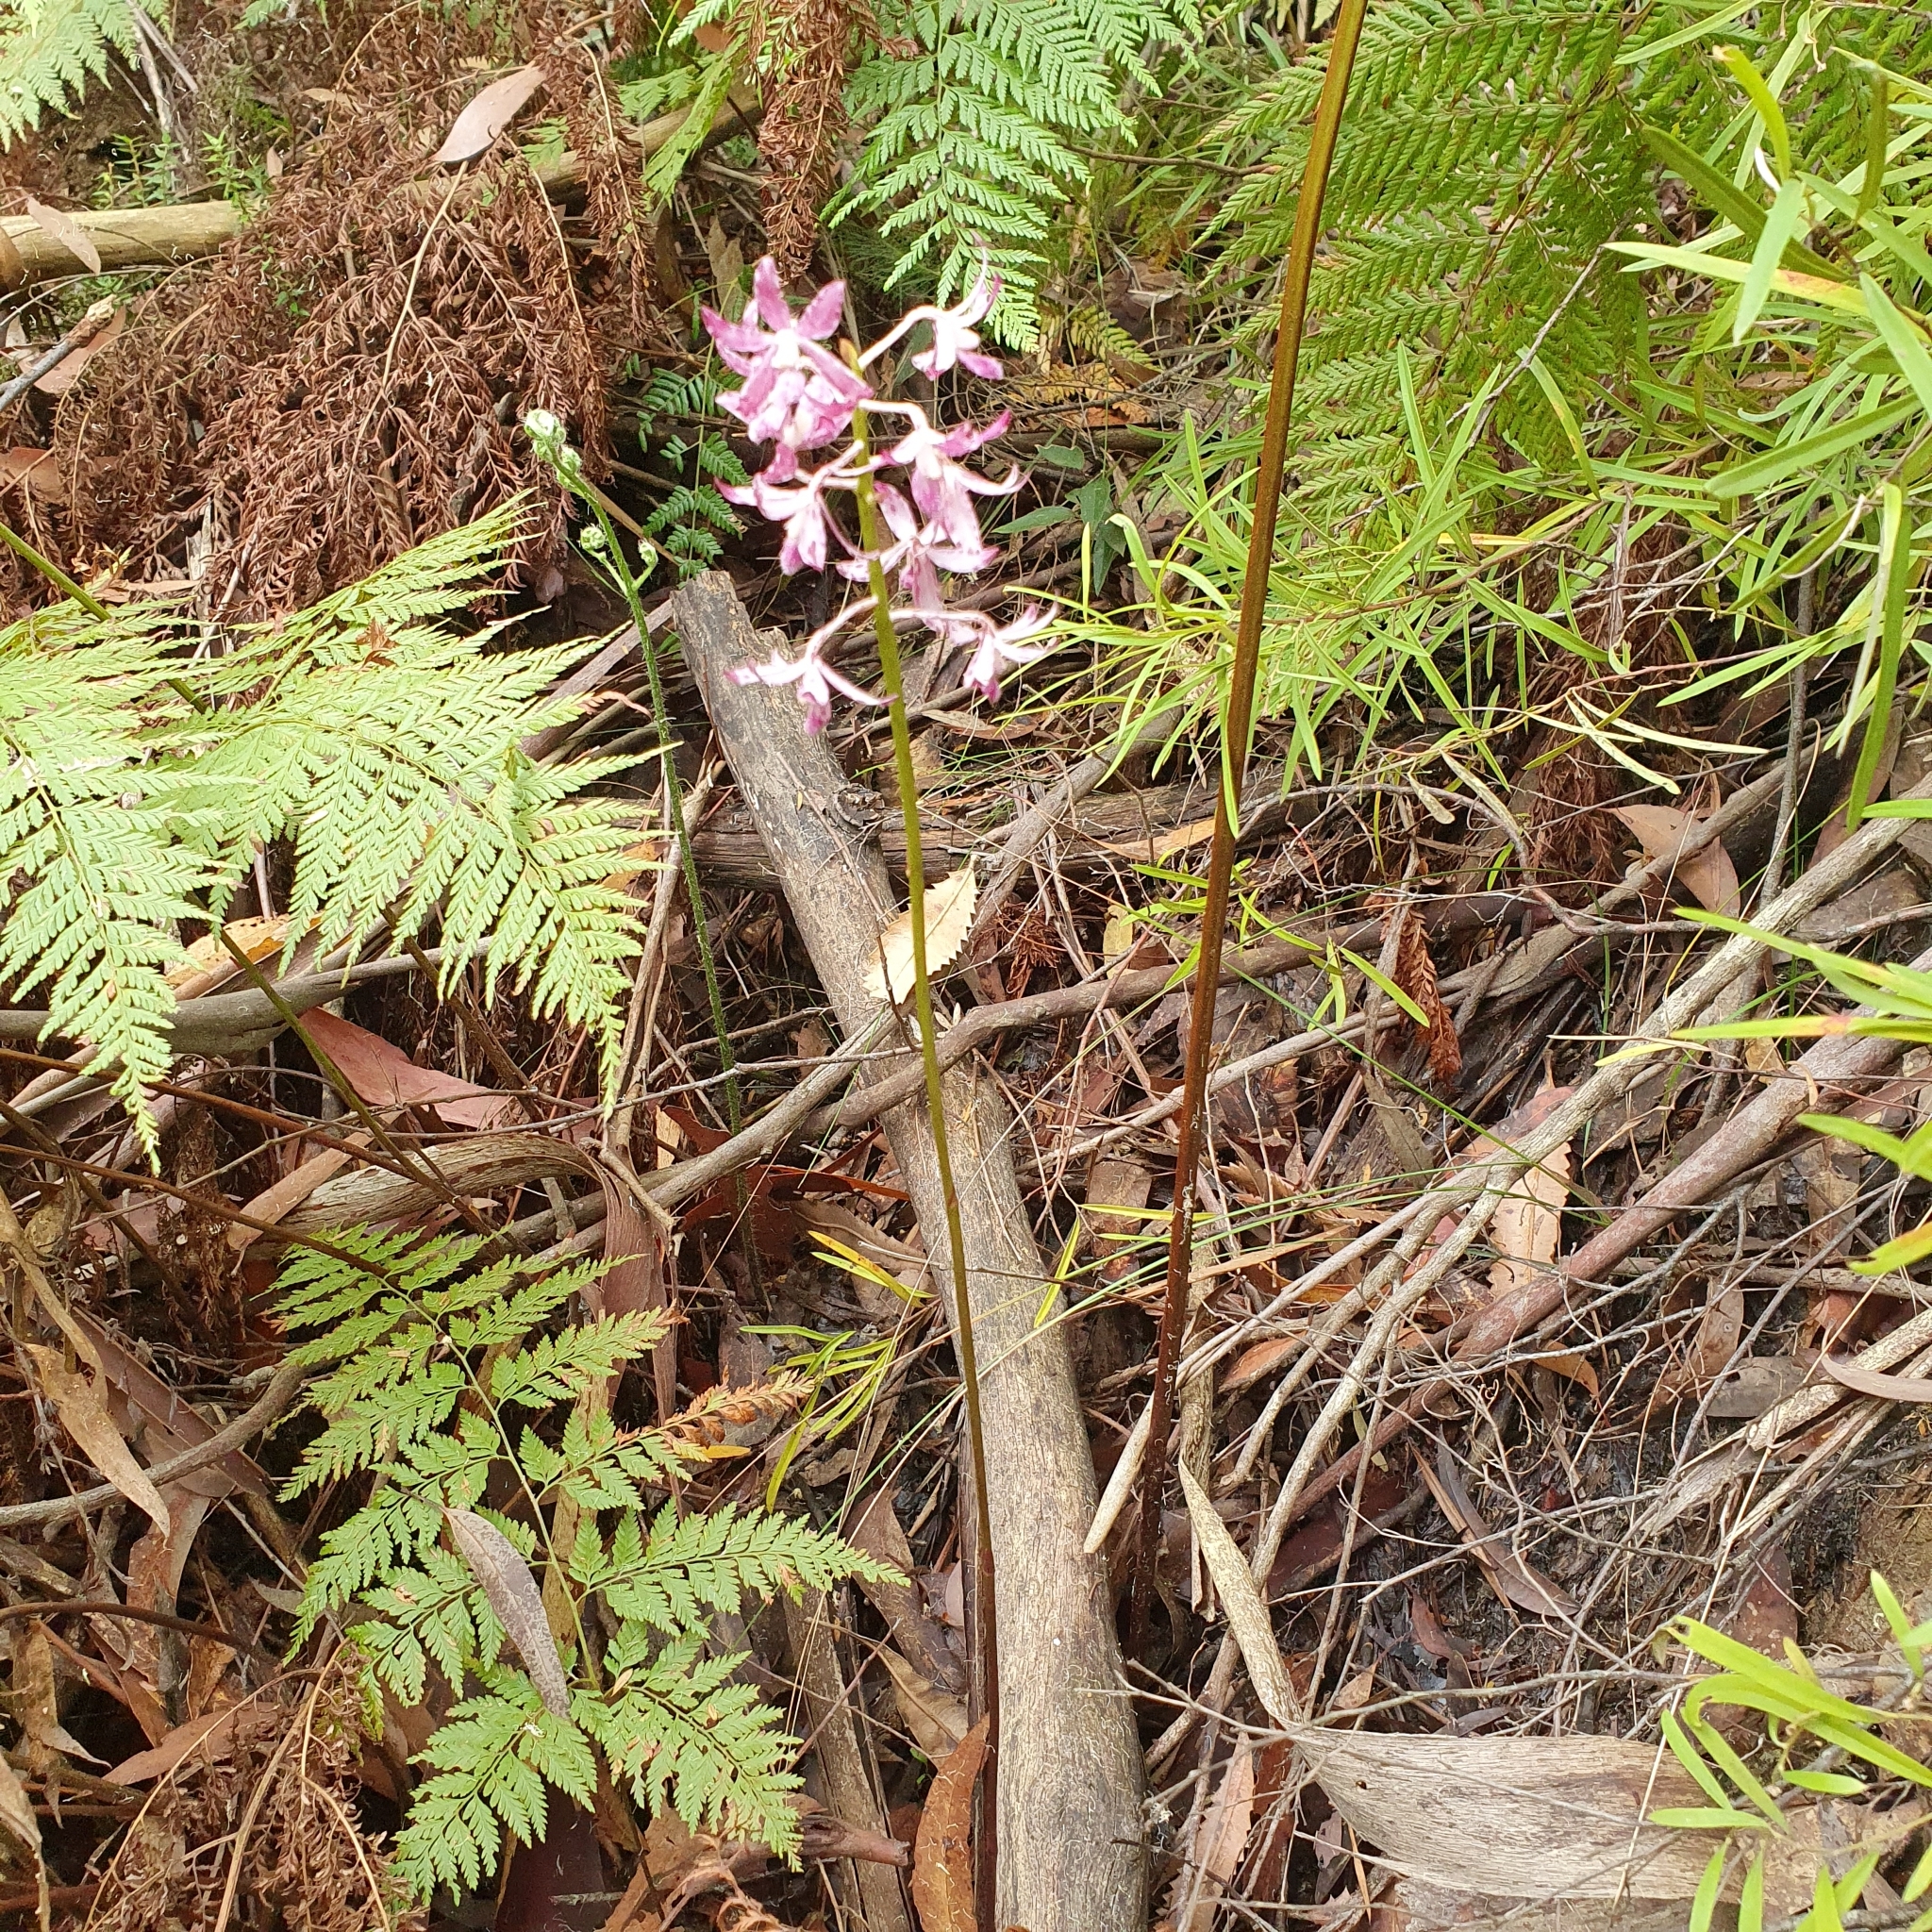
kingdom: Plantae
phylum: Tracheophyta
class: Liliopsida
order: Asparagales
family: Orchidaceae
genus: Dipodium
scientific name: Dipodium variegatum
